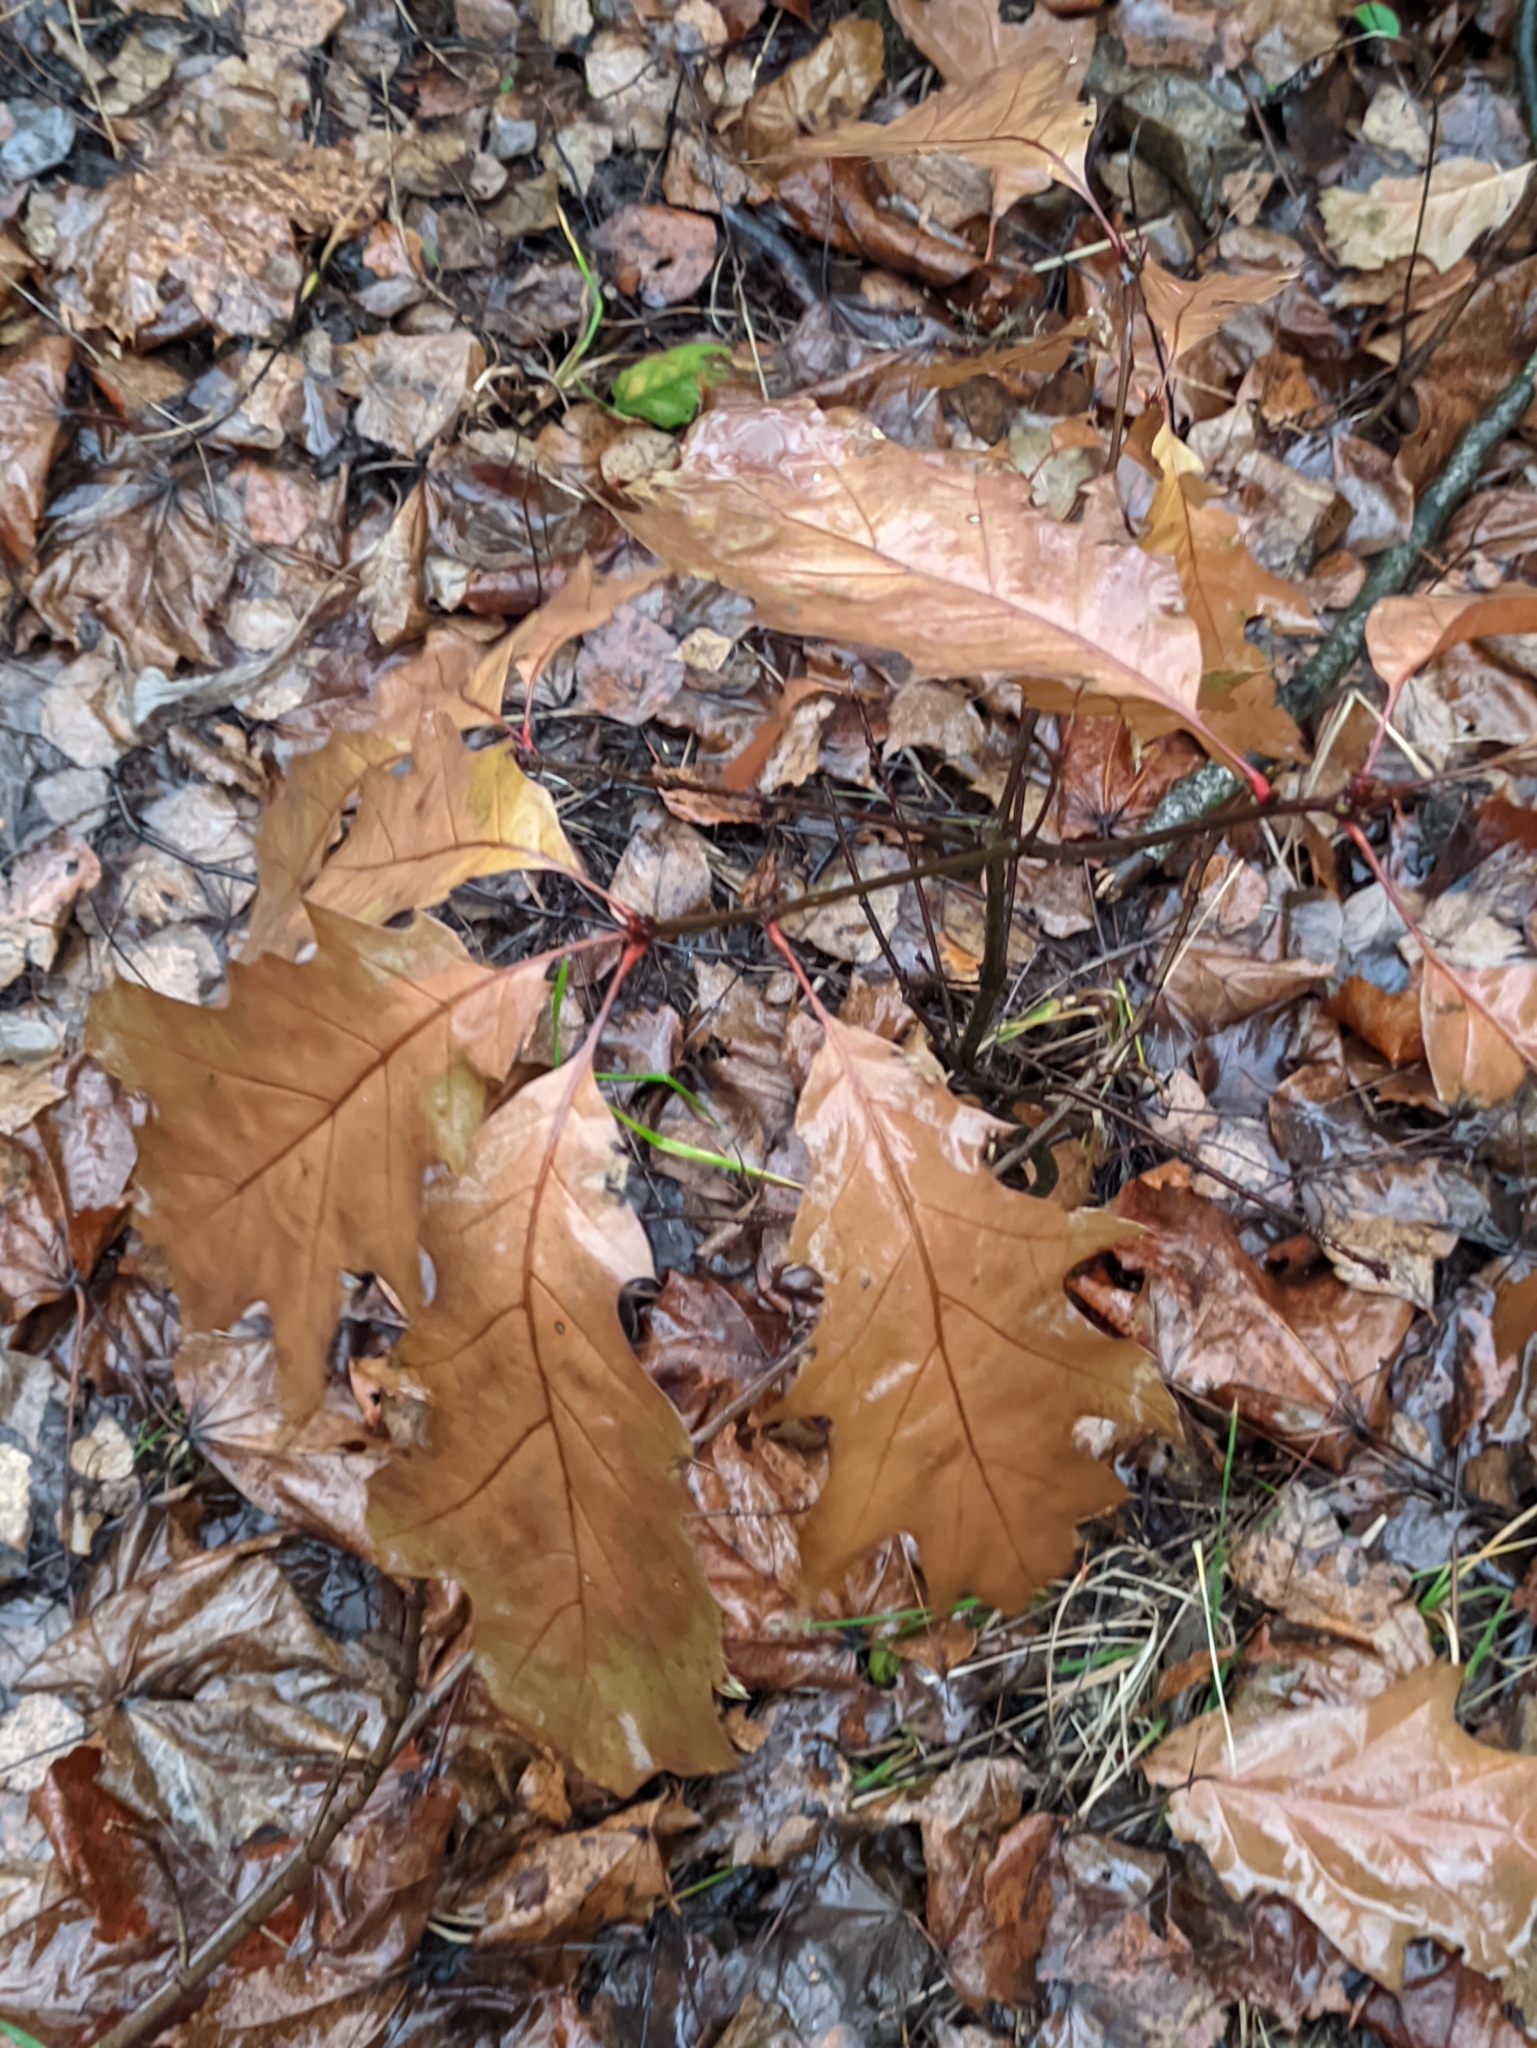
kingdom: Plantae
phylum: Tracheophyta
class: Magnoliopsida
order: Fagales
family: Fagaceae
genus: Quercus
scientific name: Quercus rubra
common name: Red oak
